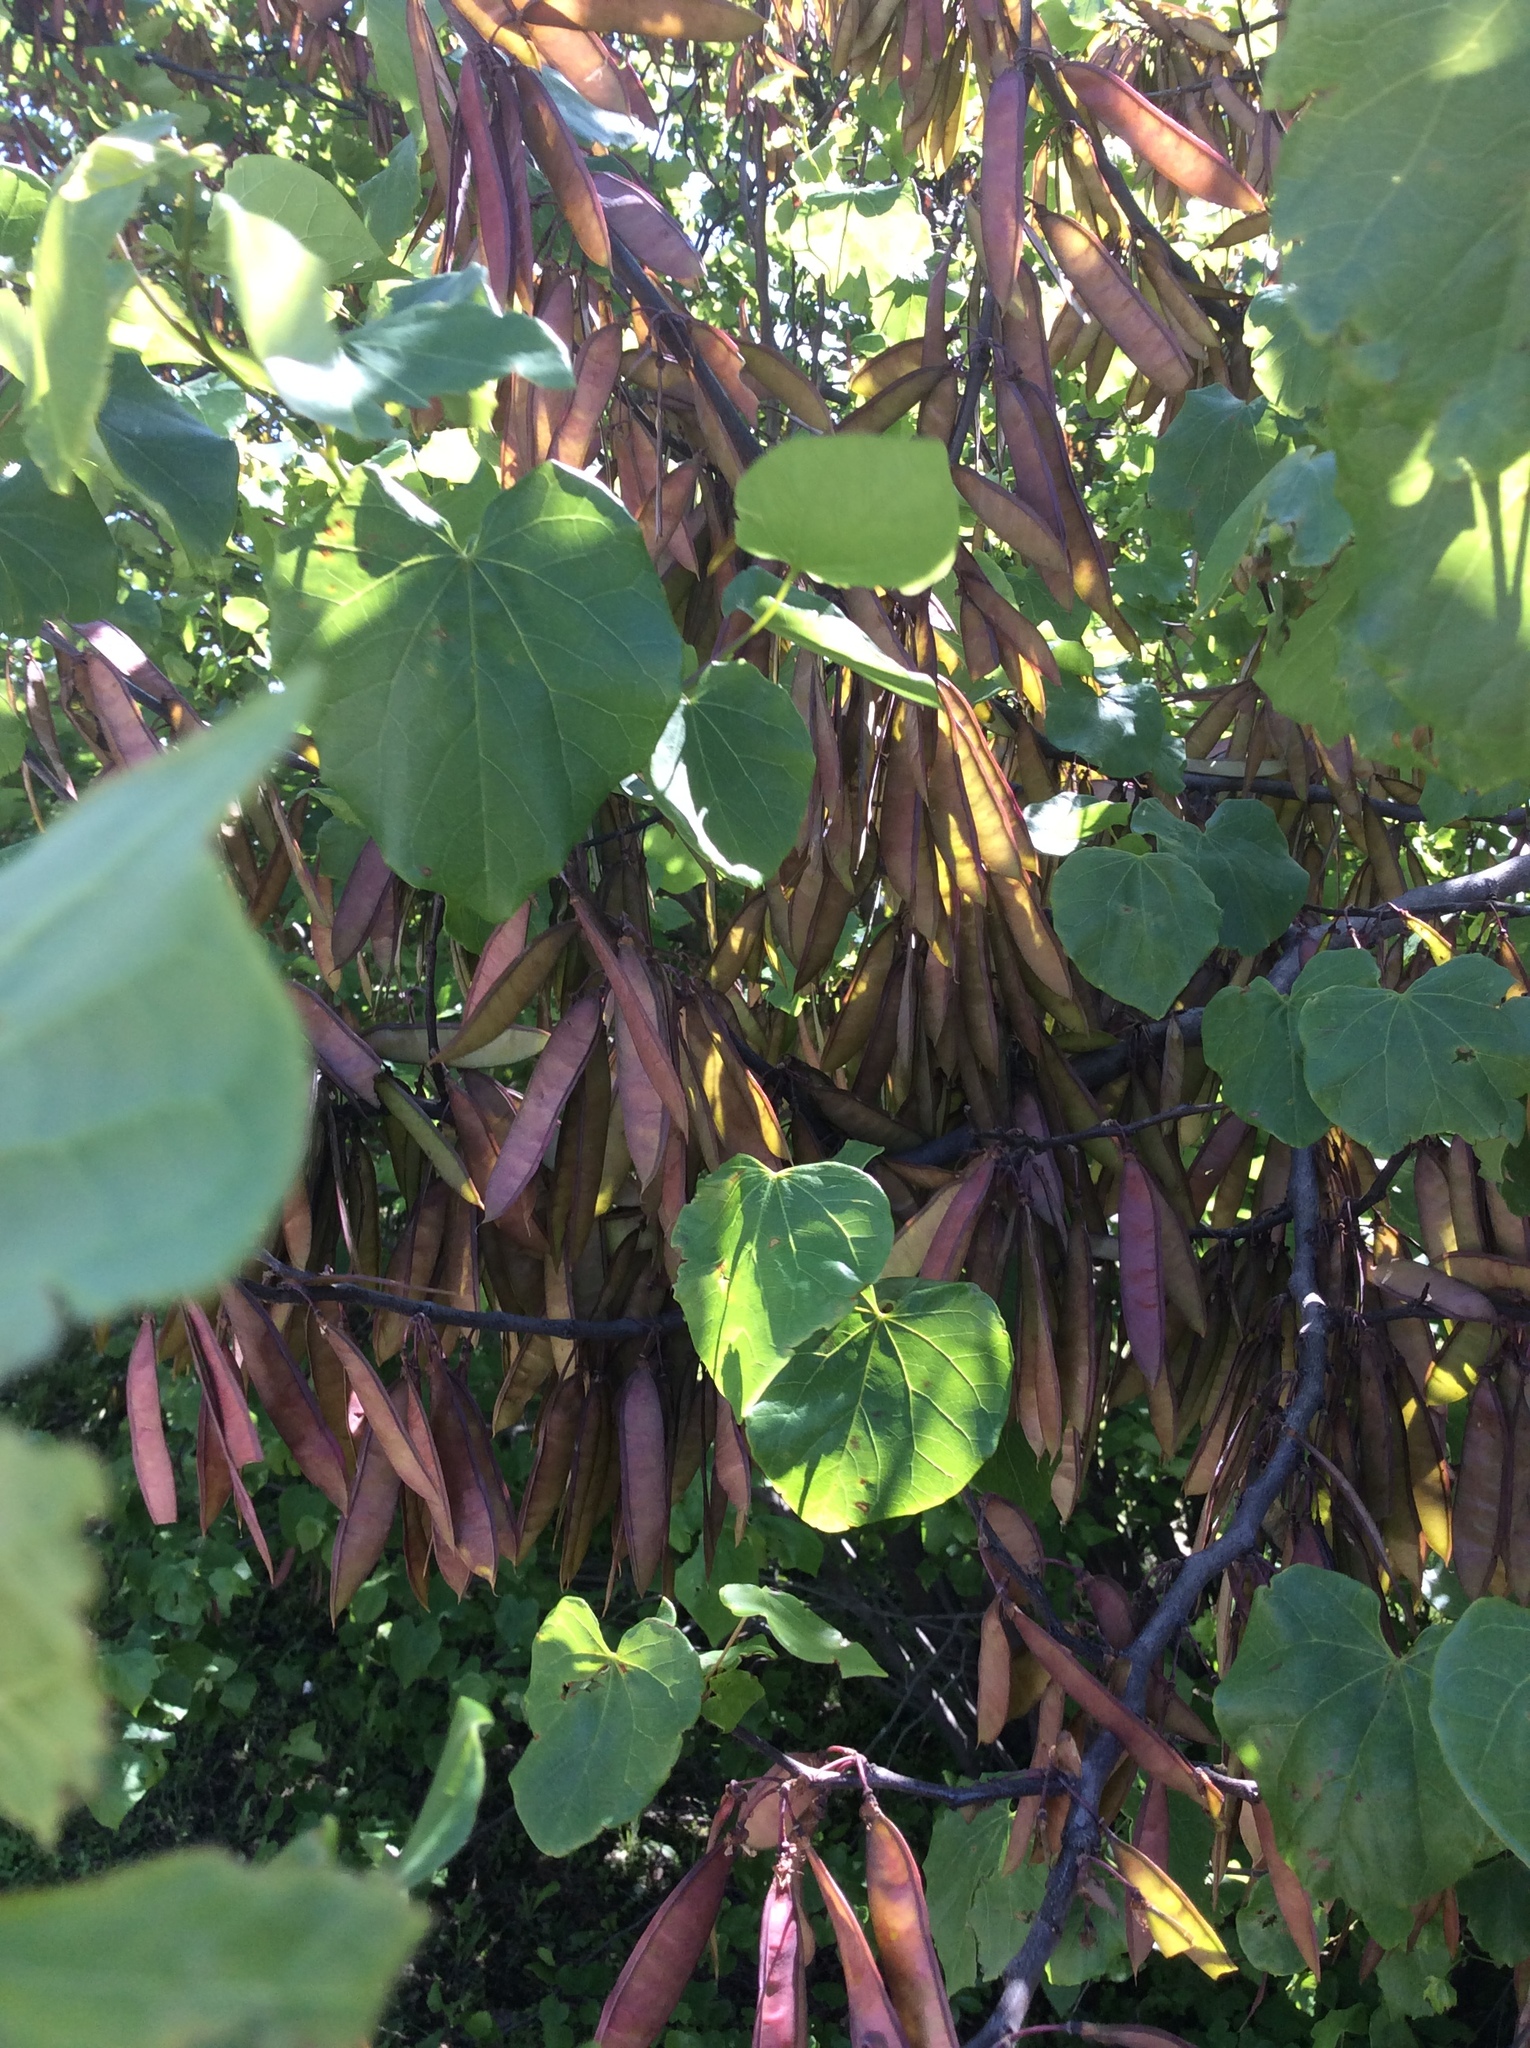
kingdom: Plantae
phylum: Tracheophyta
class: Magnoliopsida
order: Fabales
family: Fabaceae
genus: Cercis
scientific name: Cercis canadensis
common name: Eastern redbud
